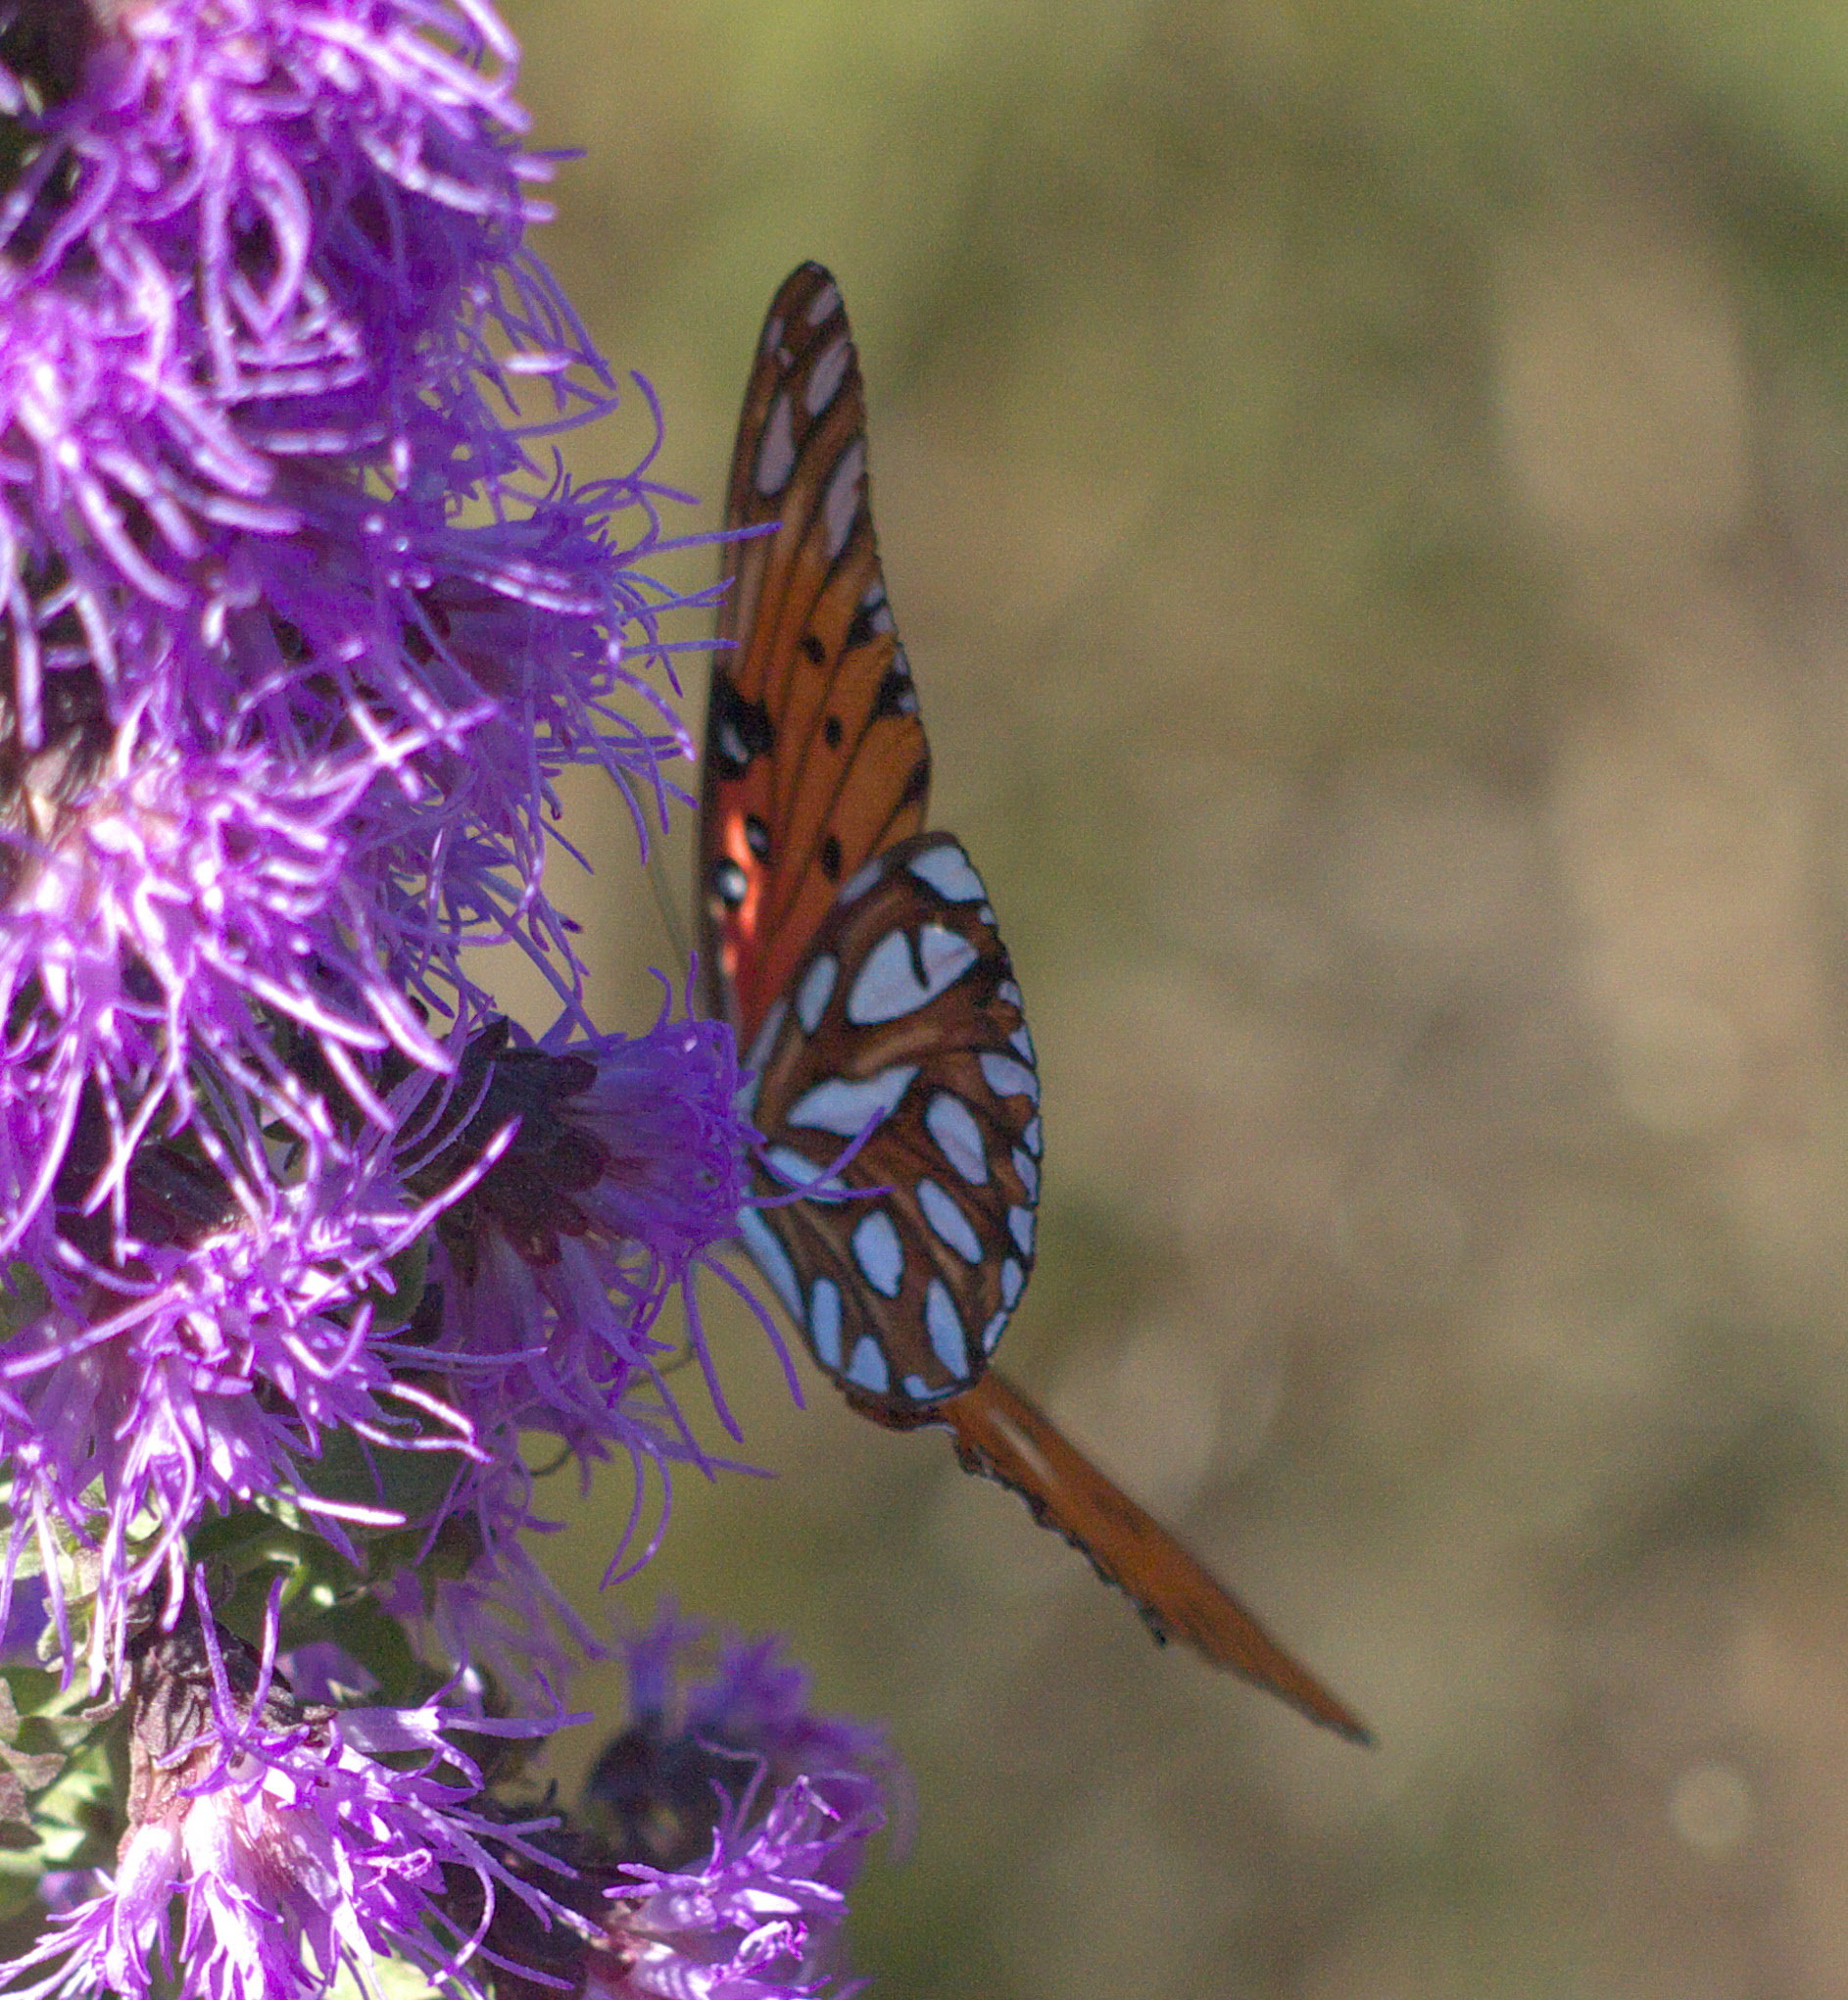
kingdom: Animalia
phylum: Arthropoda
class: Insecta
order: Lepidoptera
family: Nymphalidae
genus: Dione
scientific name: Dione vanillae
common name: Gulf fritillary
